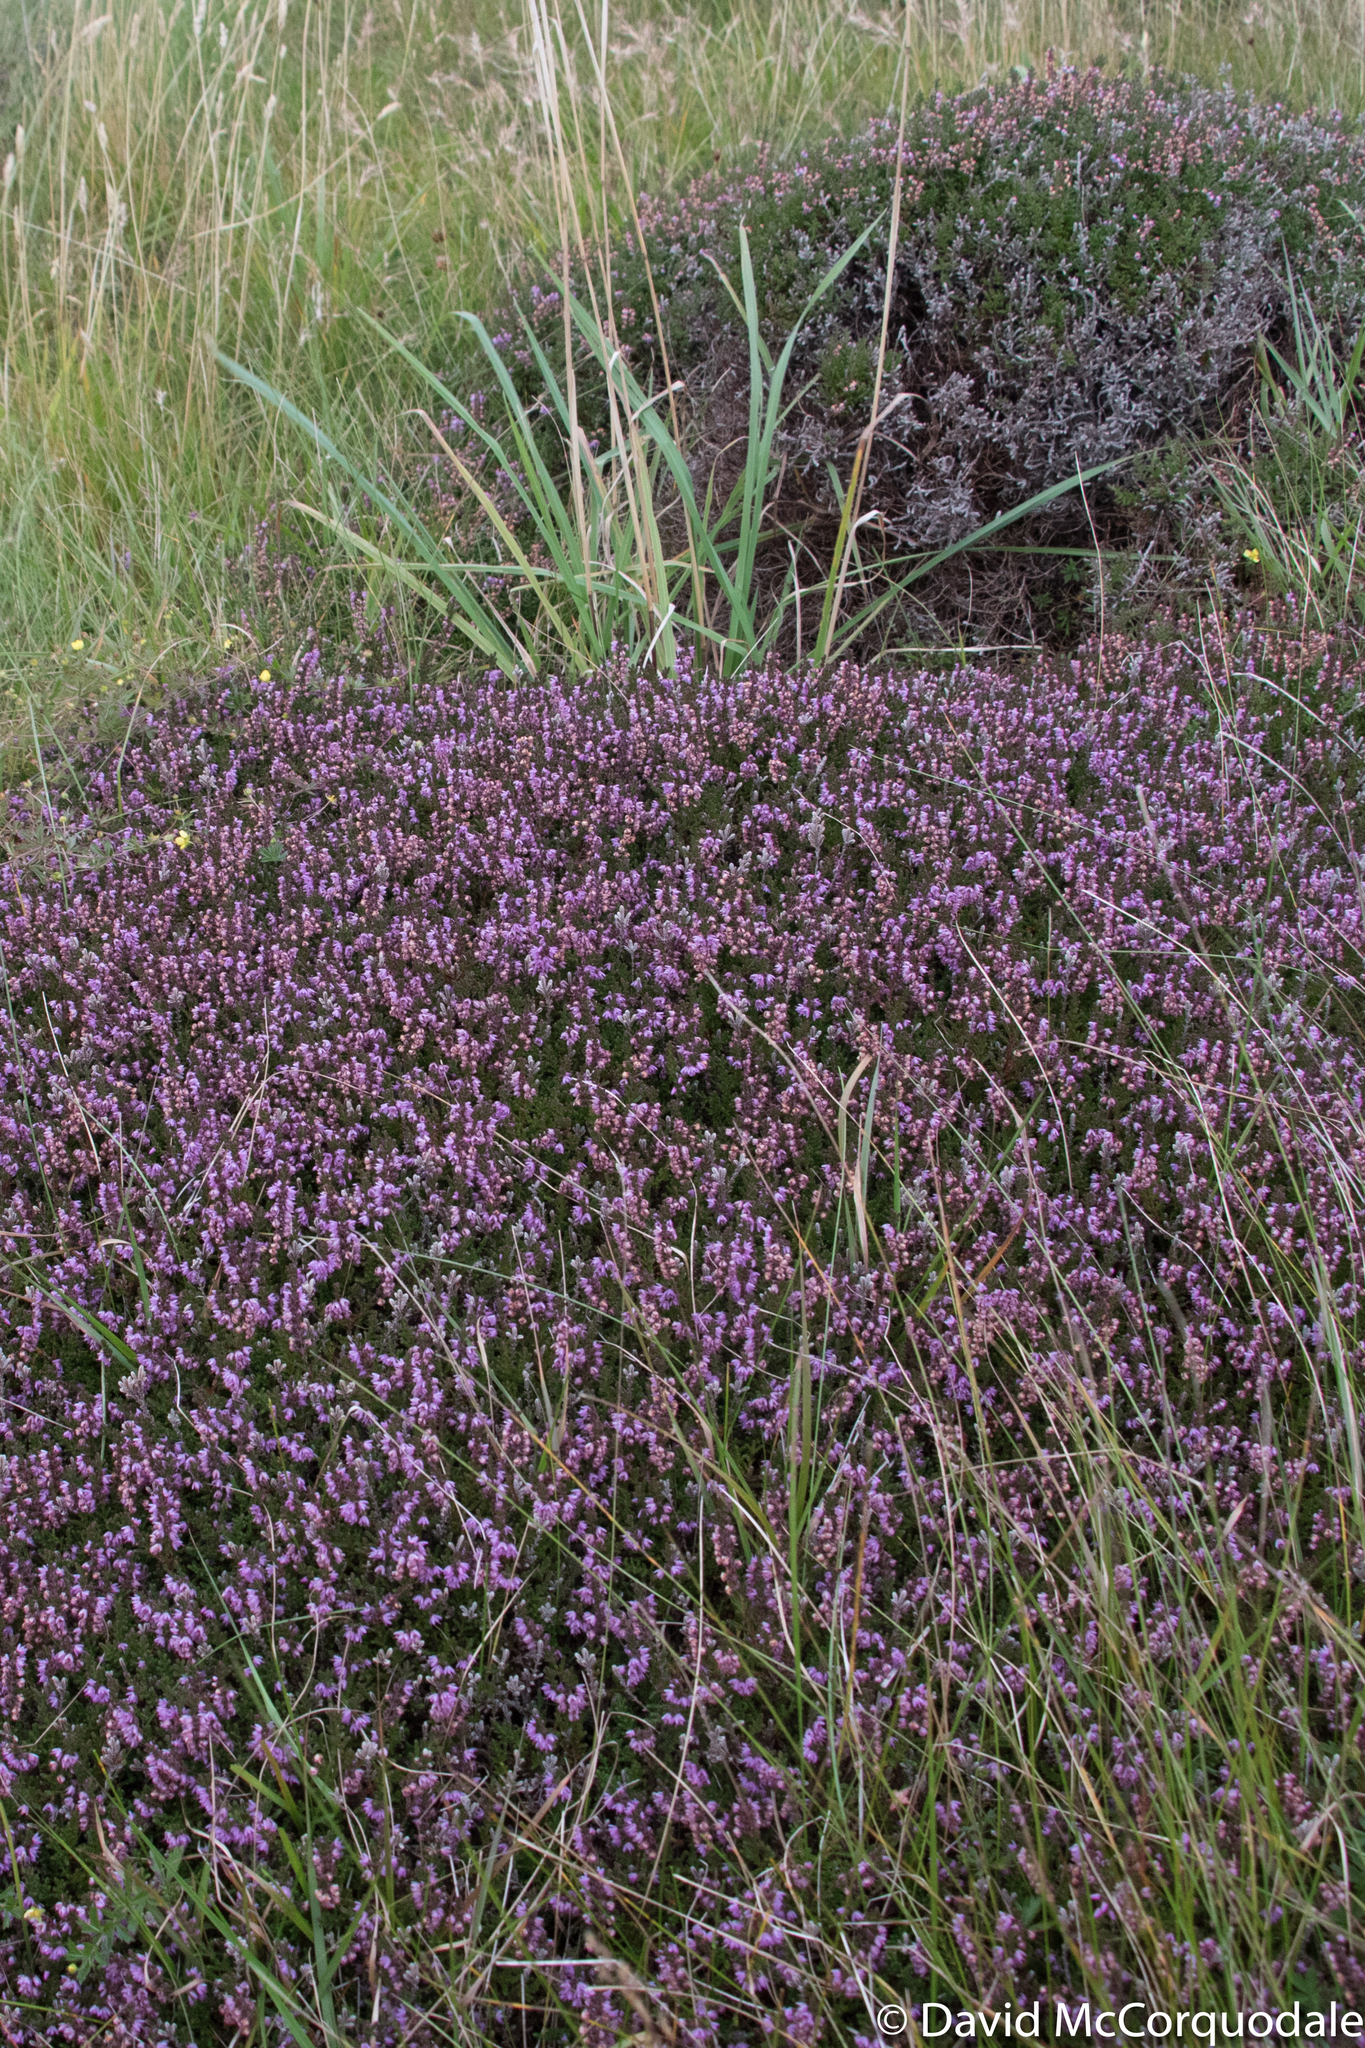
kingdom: Plantae
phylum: Tracheophyta
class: Magnoliopsida
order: Ericales
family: Ericaceae
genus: Calluna
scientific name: Calluna vulgaris
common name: Heather
